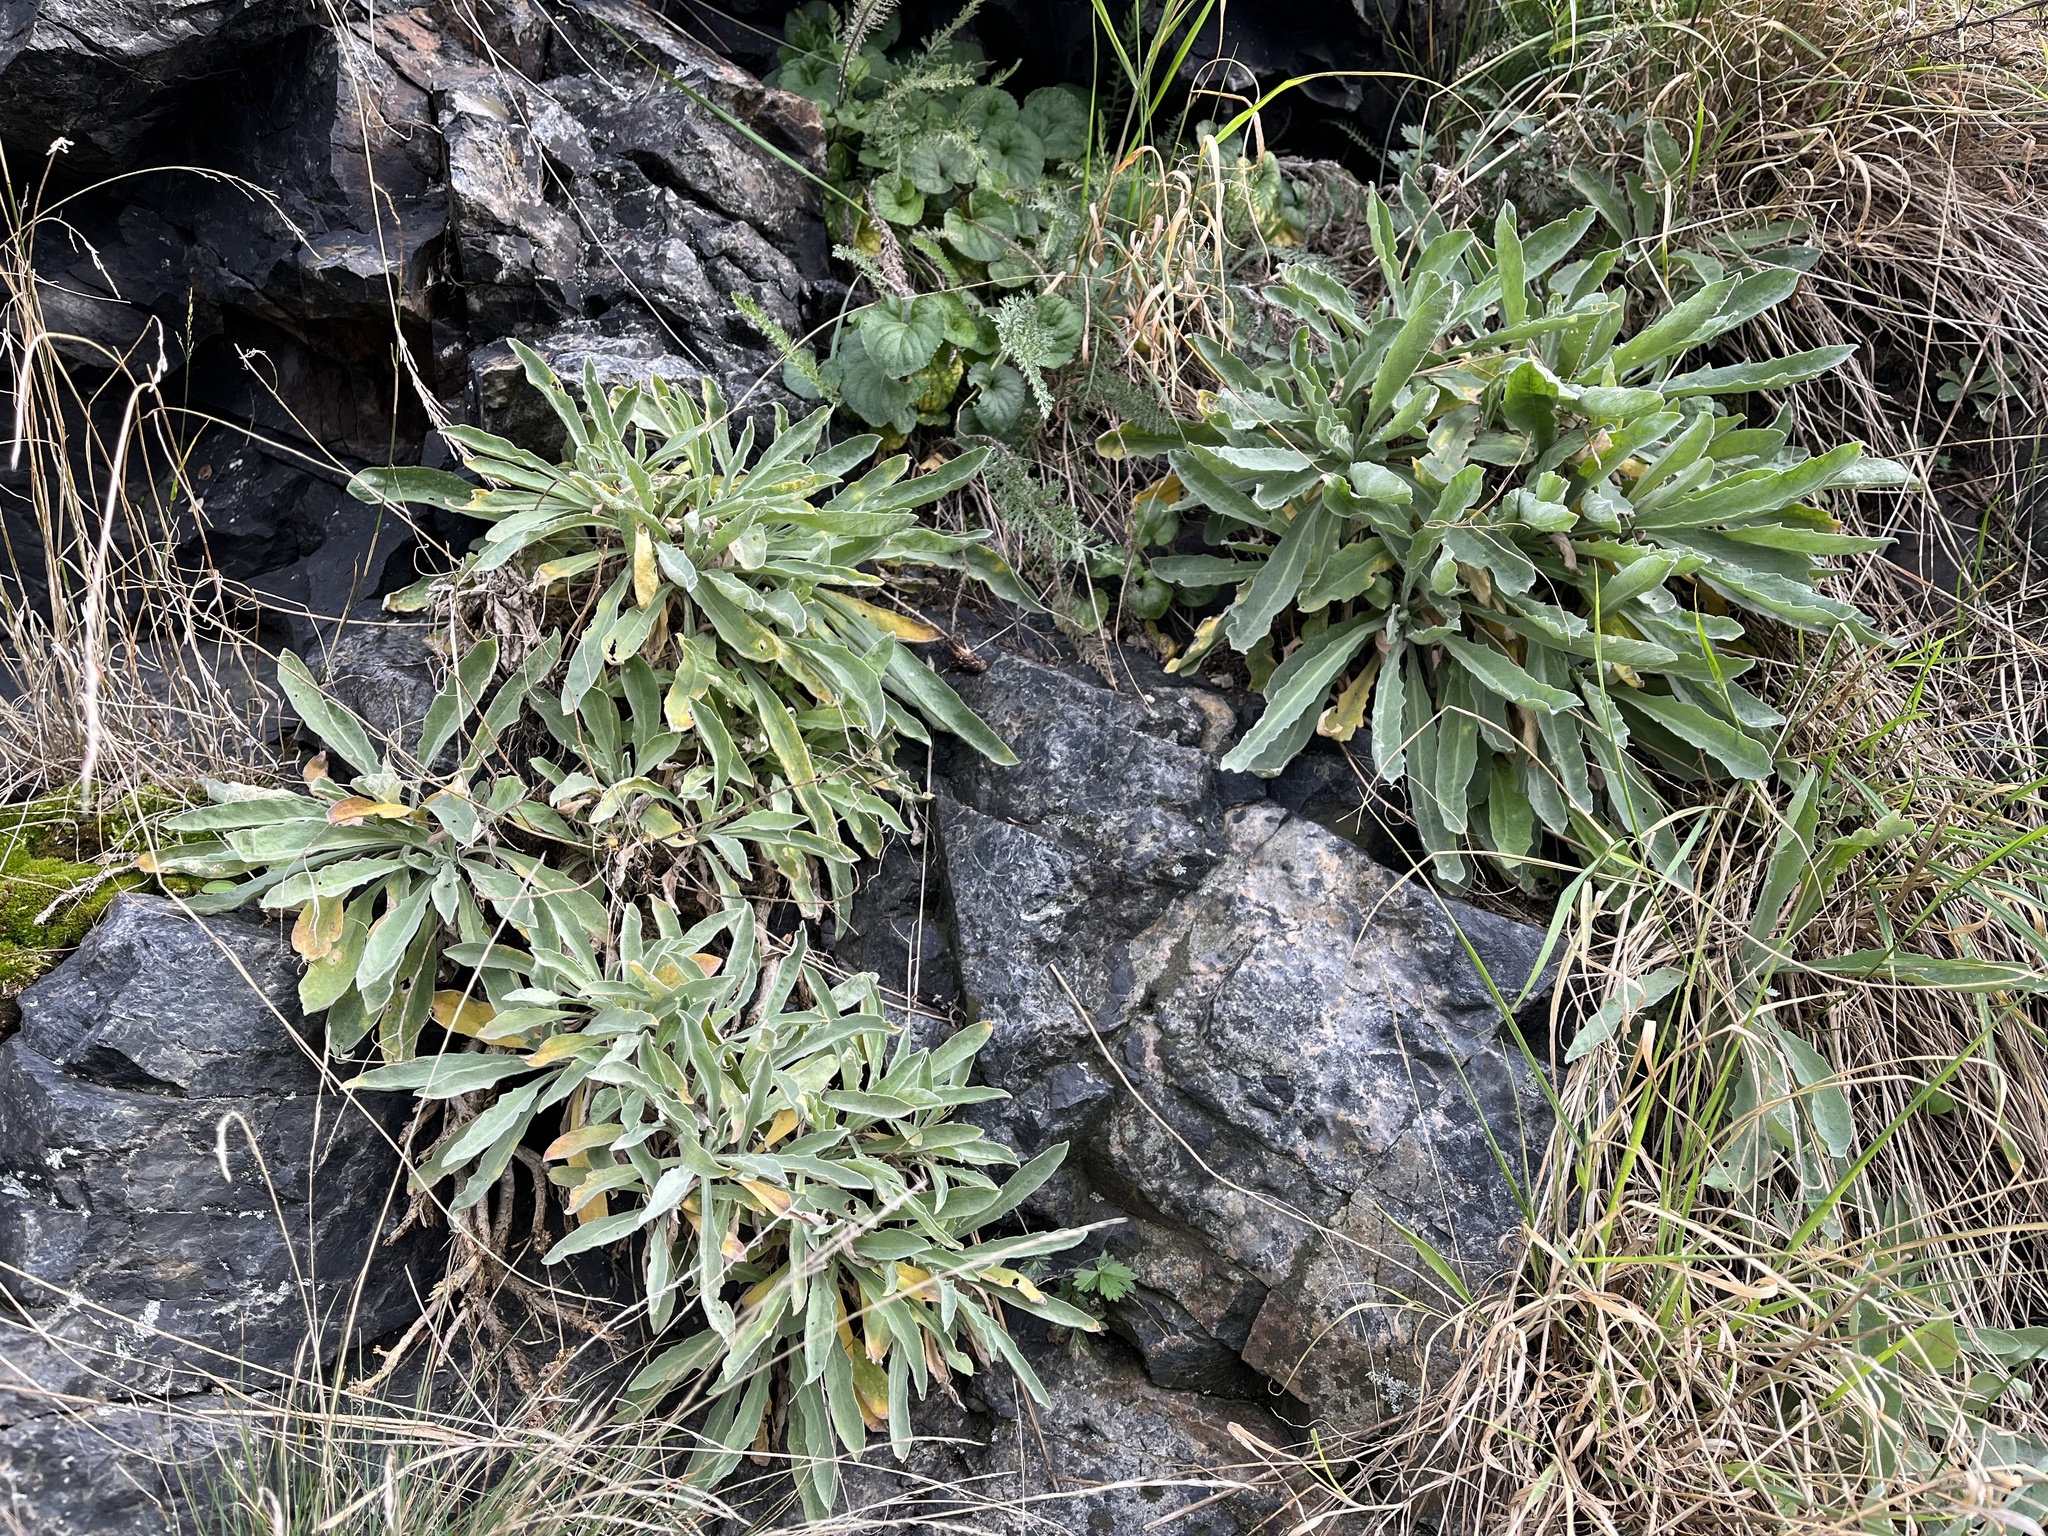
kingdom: Plantae
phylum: Tracheophyta
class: Magnoliopsida
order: Brassicales
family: Brassicaceae
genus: Aurinia
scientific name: Aurinia saxatilis
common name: Golden-tuft alyssum
